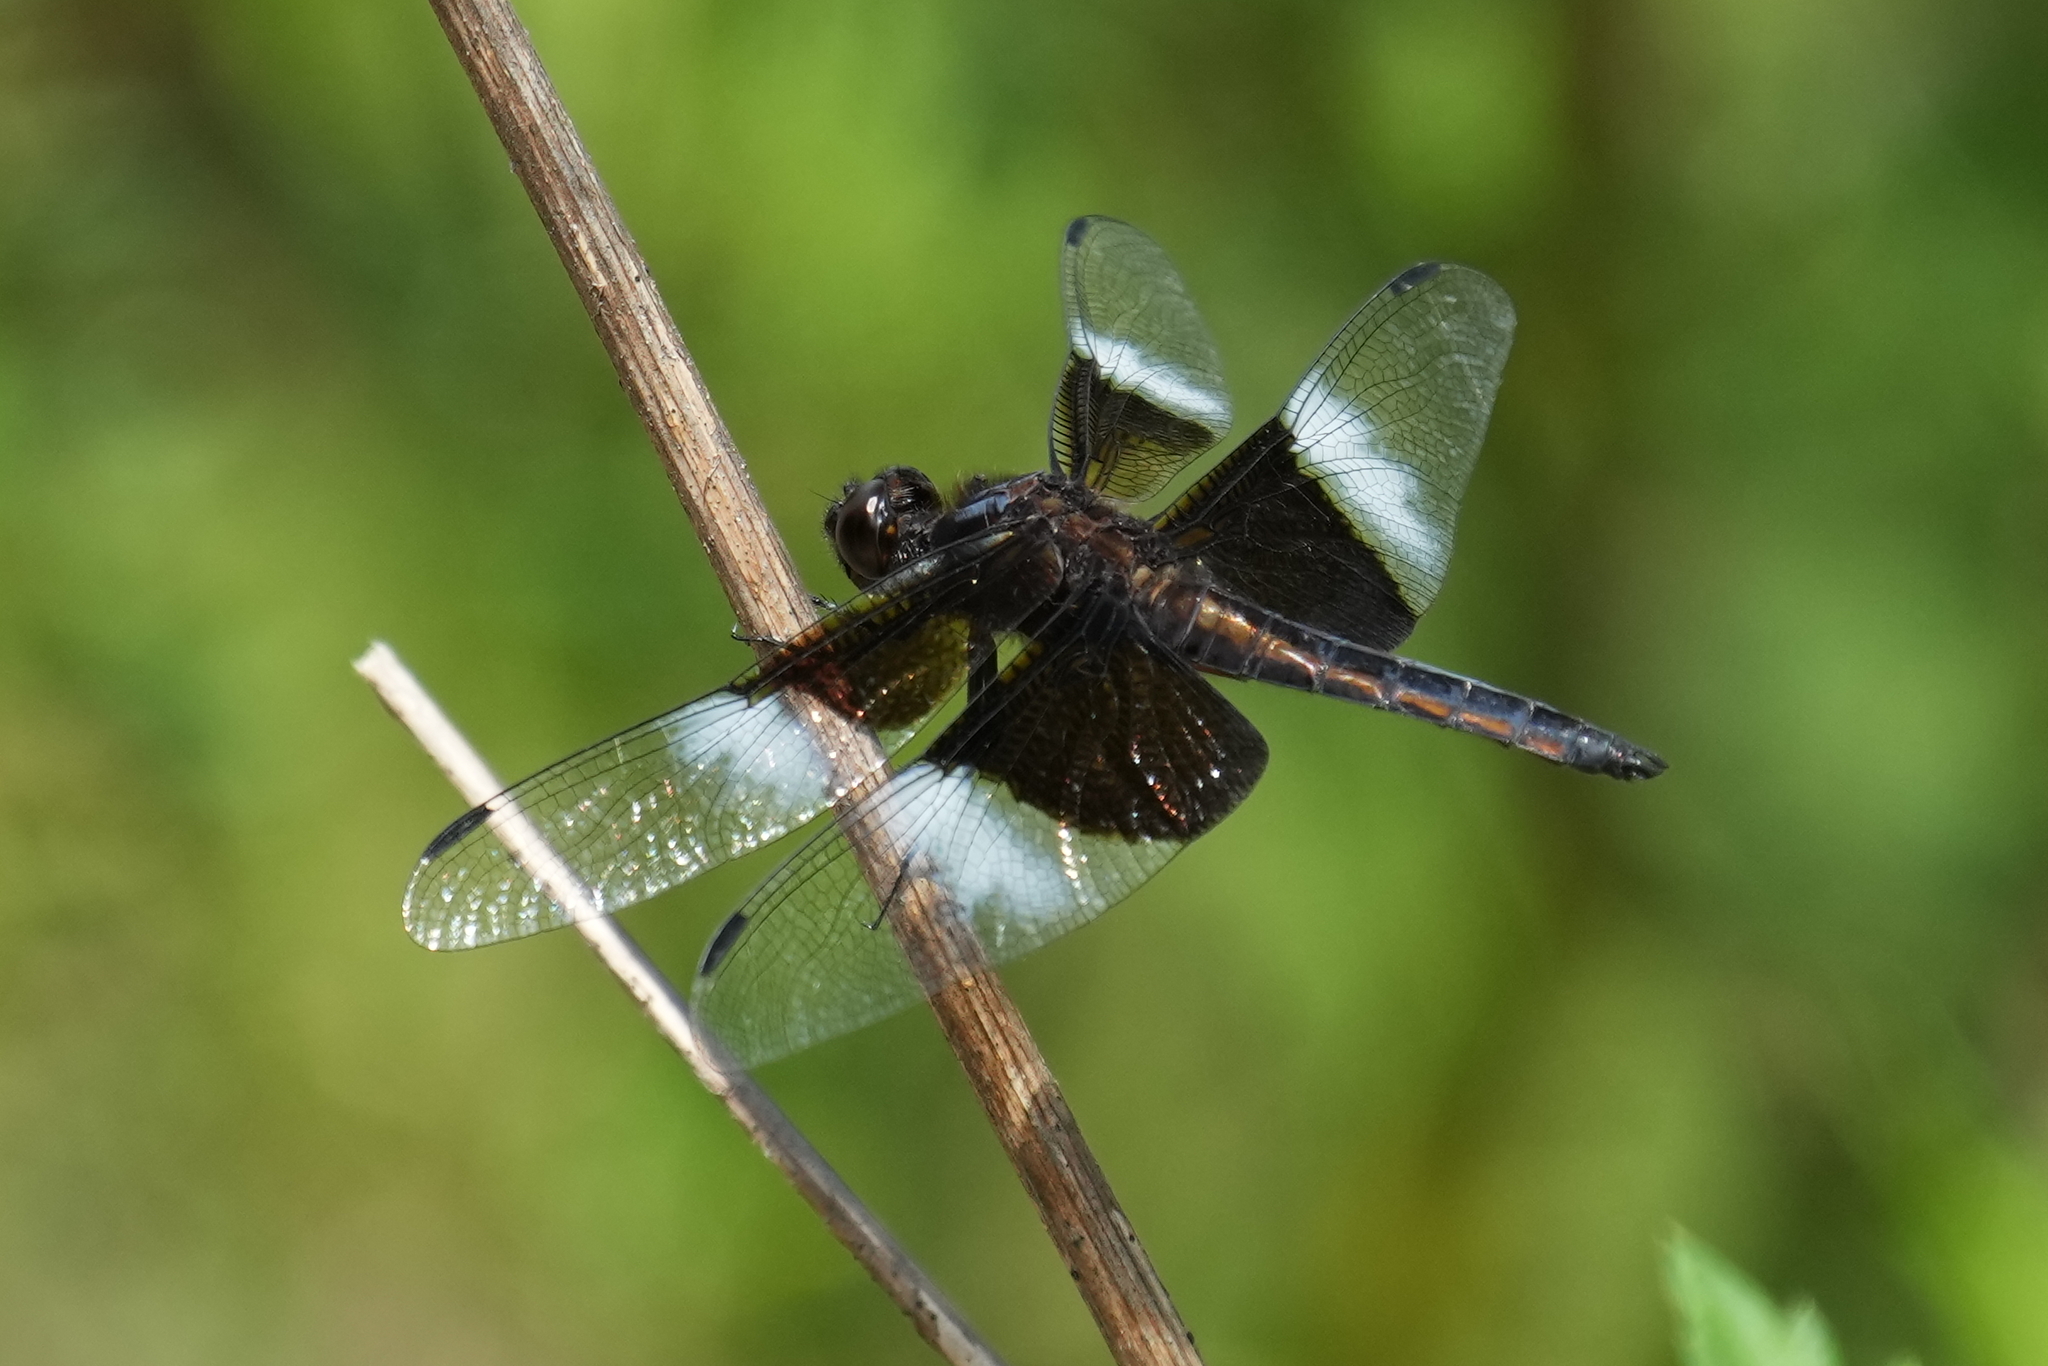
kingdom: Animalia
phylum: Arthropoda
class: Insecta
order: Odonata
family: Libellulidae
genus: Libellula
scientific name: Libellula luctuosa
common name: Widow skimmer
